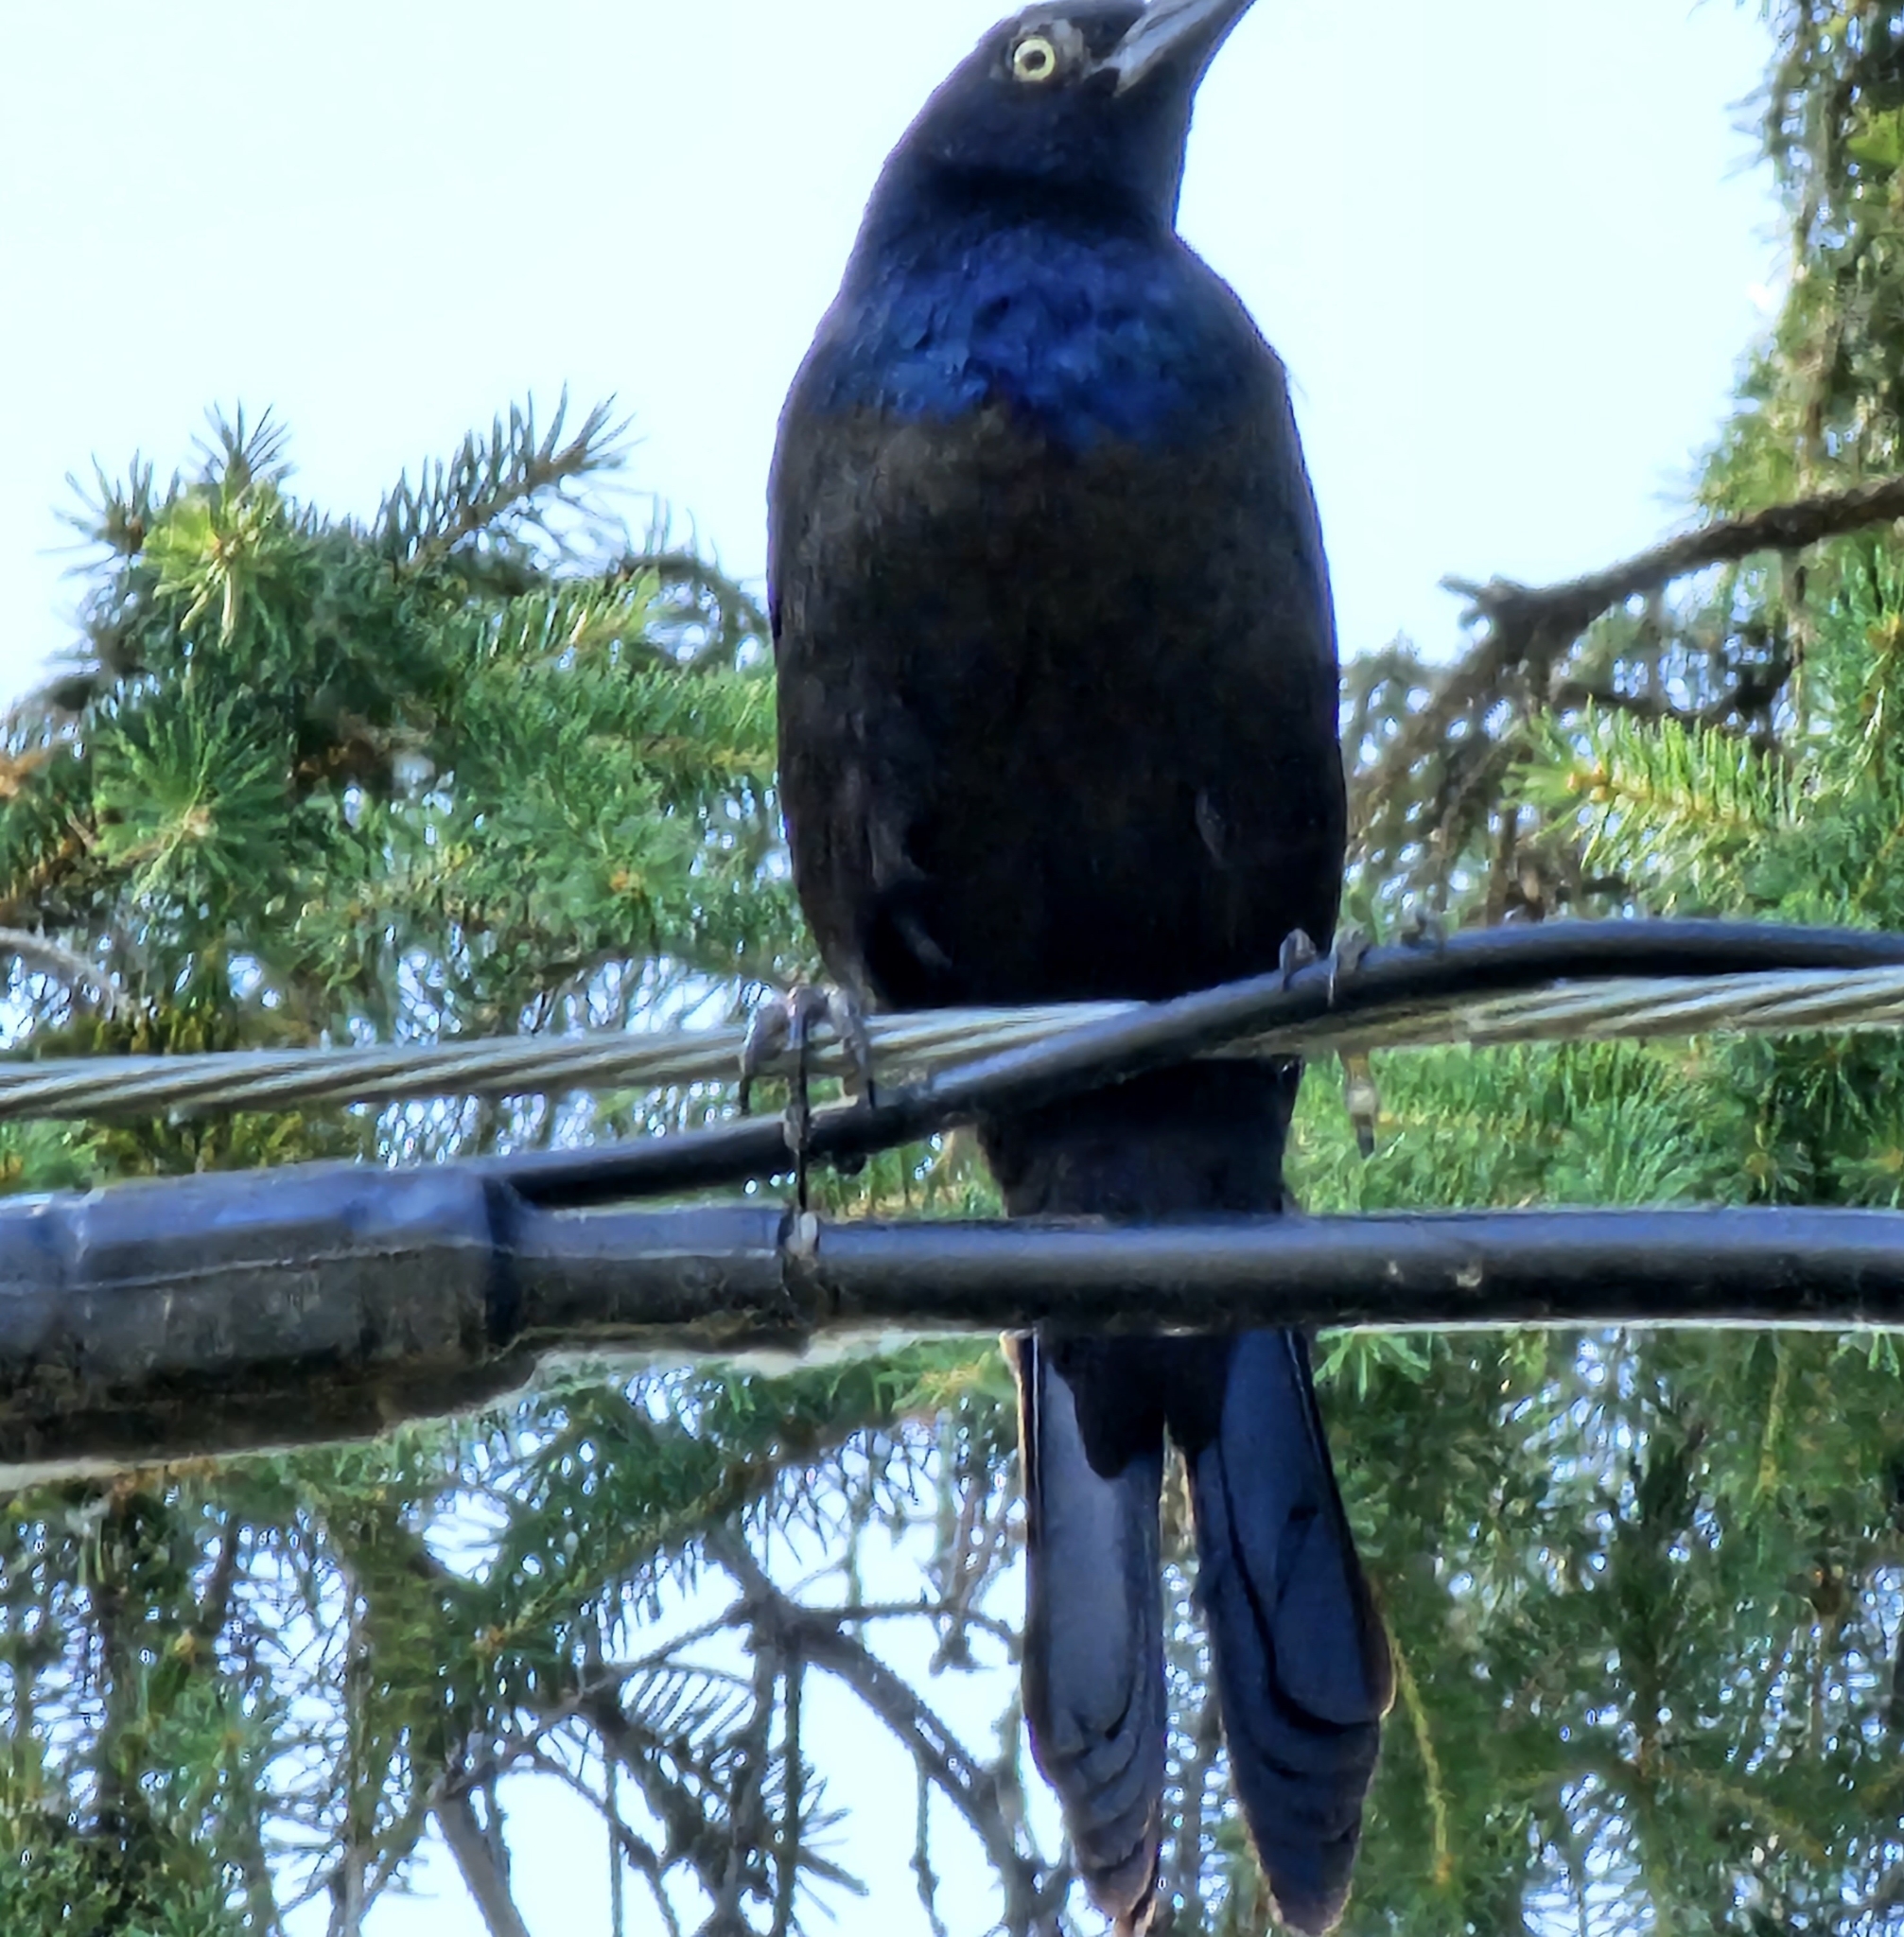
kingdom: Animalia
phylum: Chordata
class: Aves
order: Passeriformes
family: Icteridae
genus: Quiscalus
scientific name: Quiscalus quiscula
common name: Common grackle
